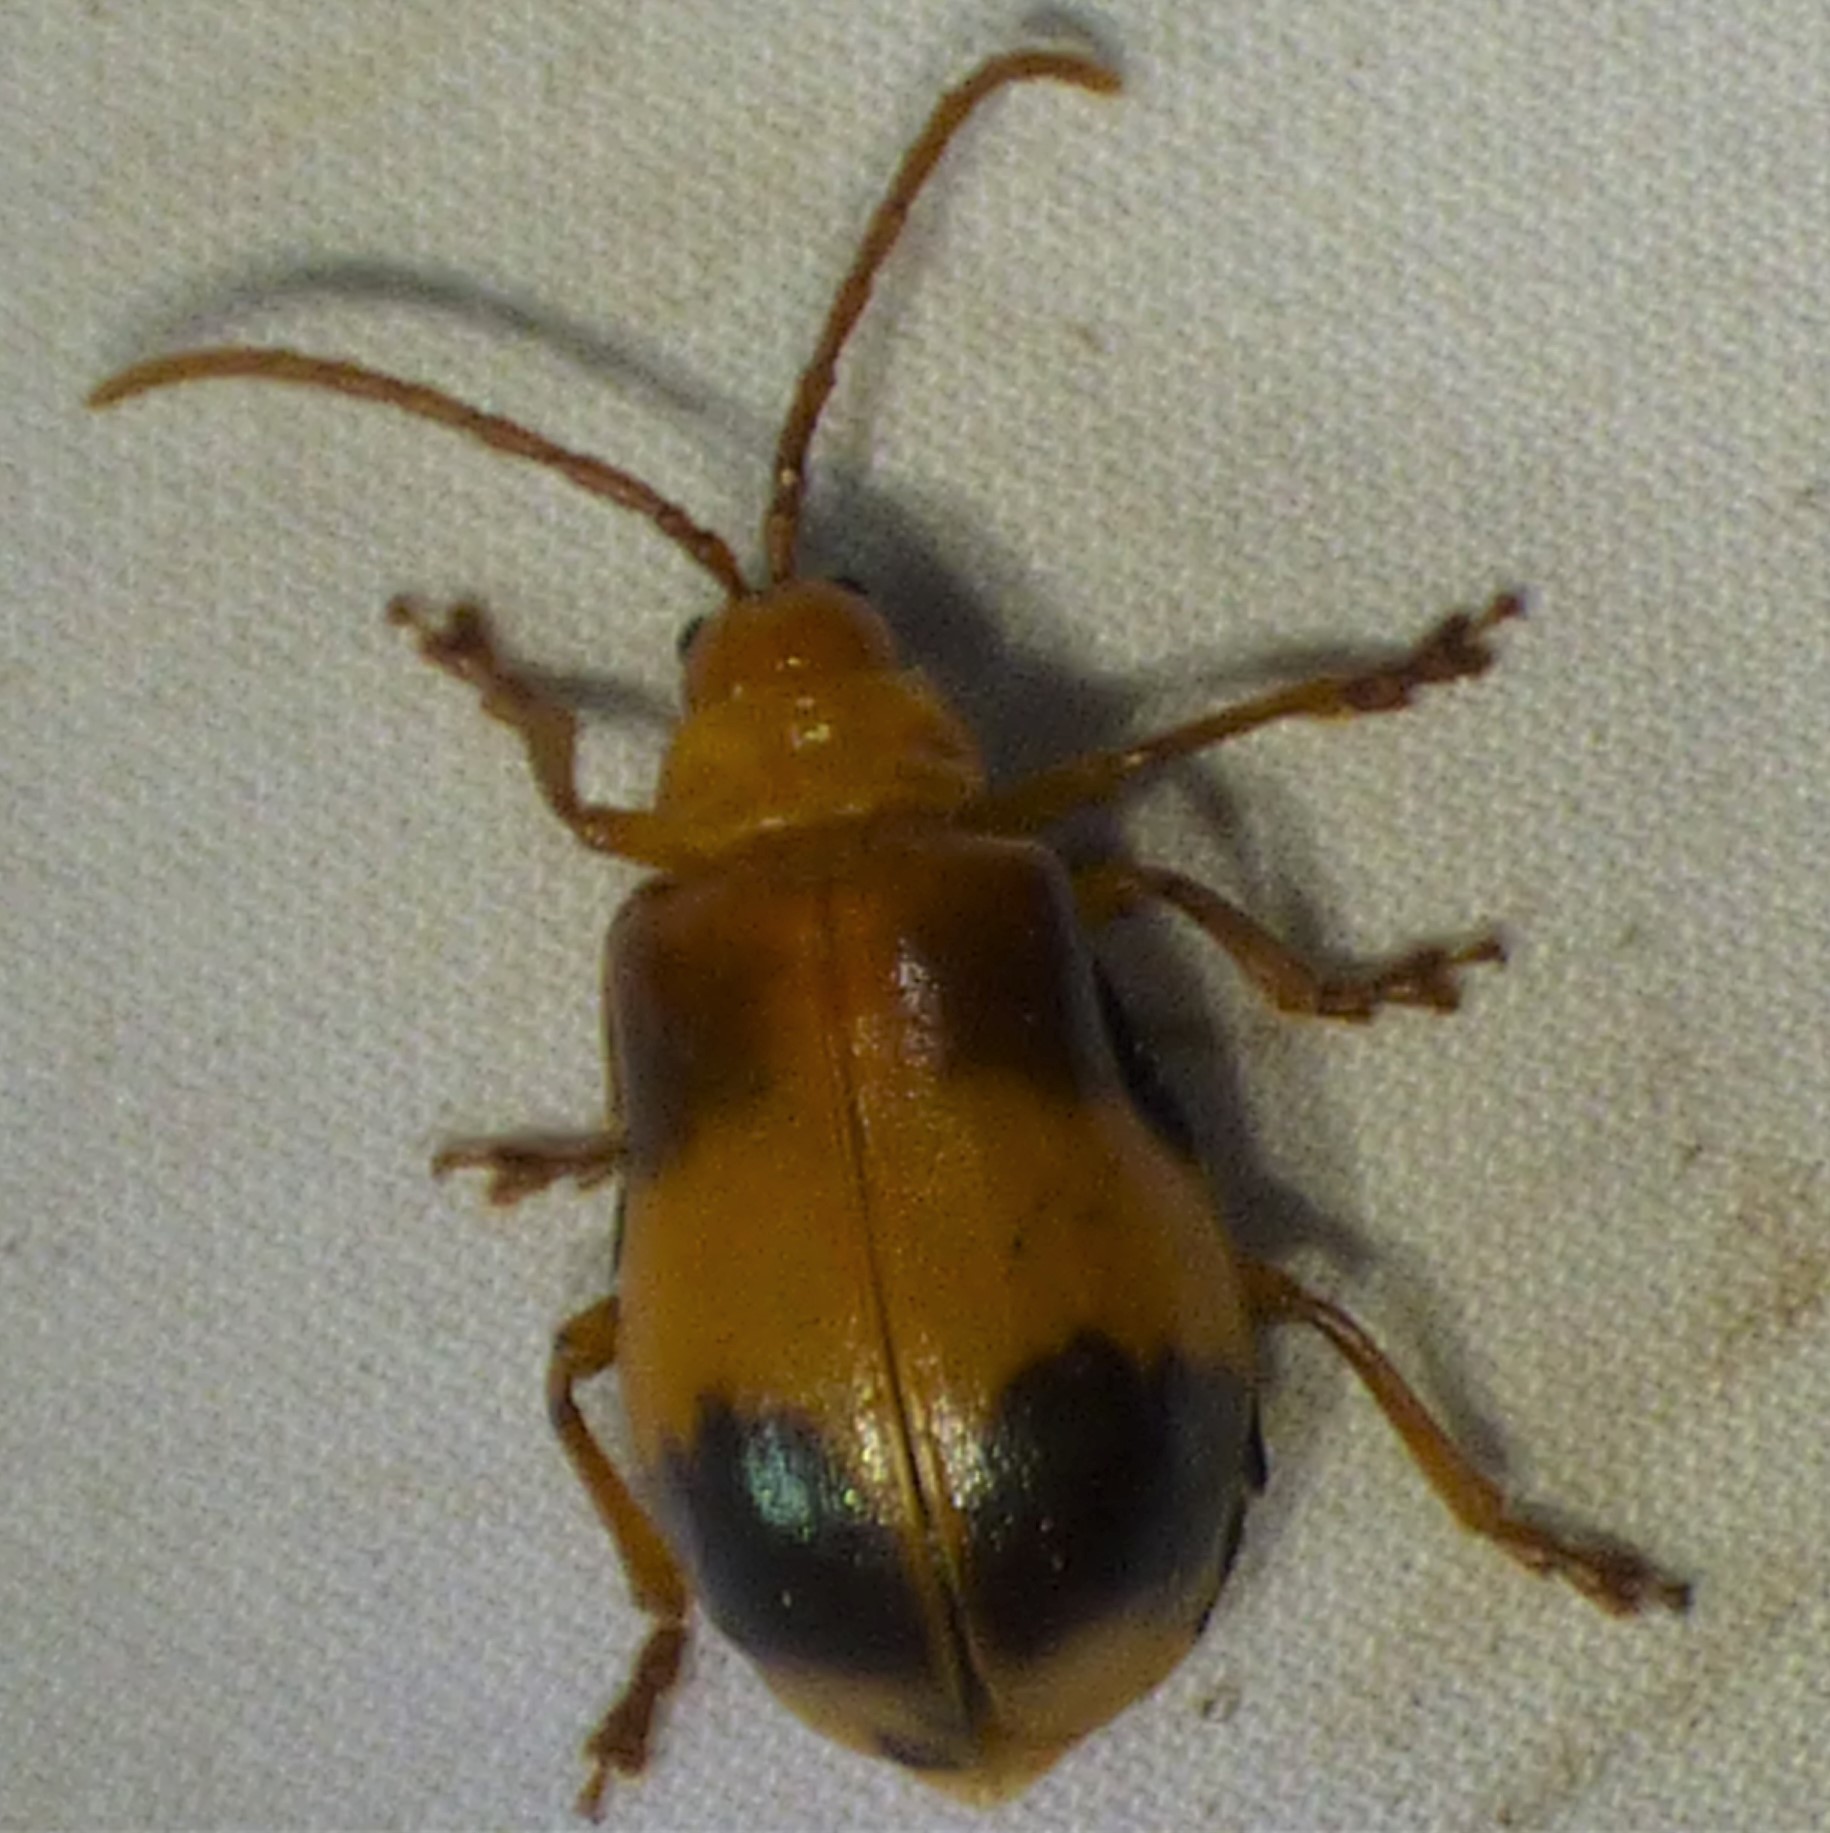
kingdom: Animalia
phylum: Arthropoda
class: Insecta
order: Coleoptera
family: Chrysomelidae
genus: Monocesta
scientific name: Monocesta coryli
